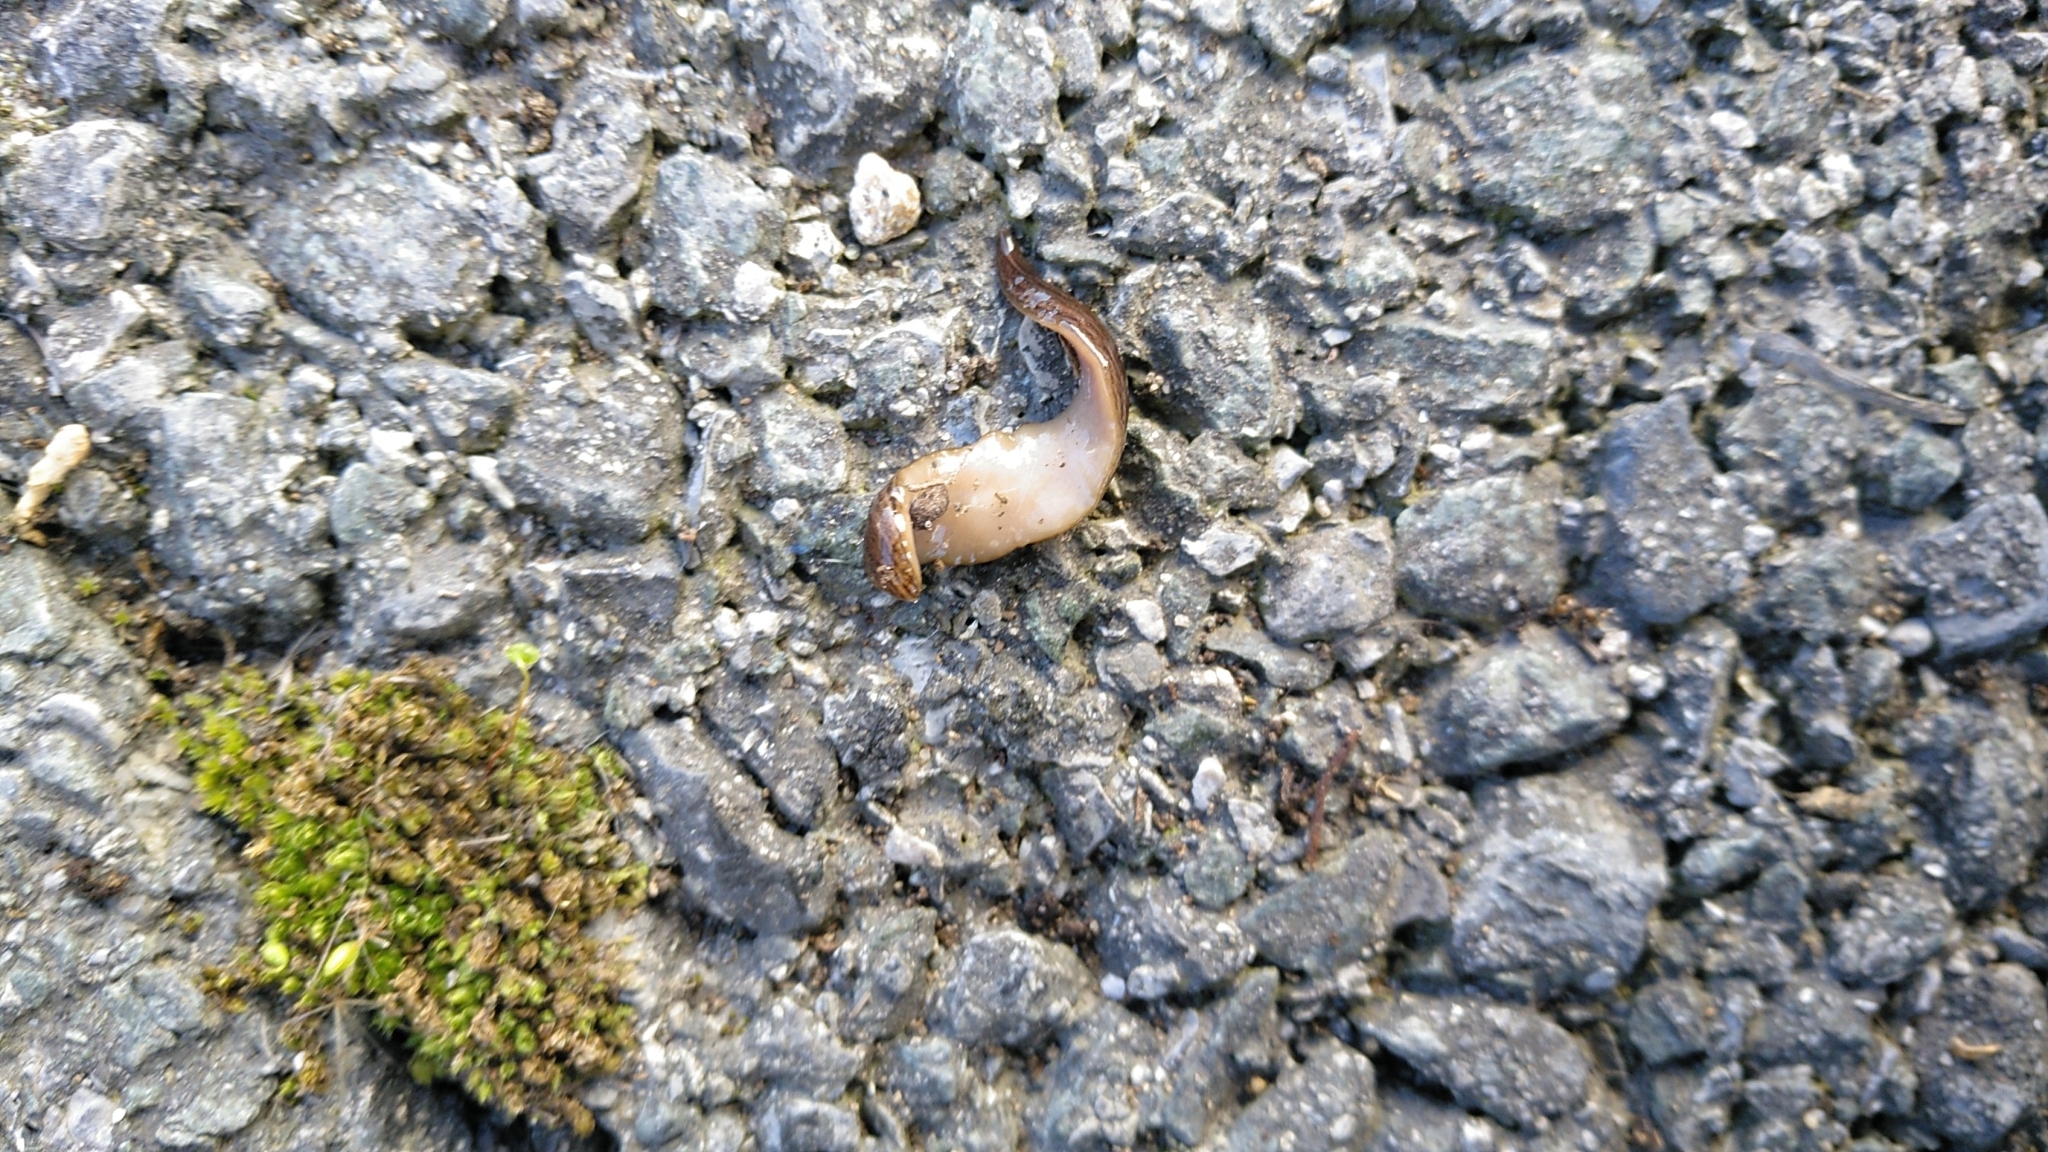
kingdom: Animalia
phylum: Platyhelminthes
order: Tricladida
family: Geoplanidae
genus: Obama
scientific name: Obama nungara
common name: Obama flatworm
